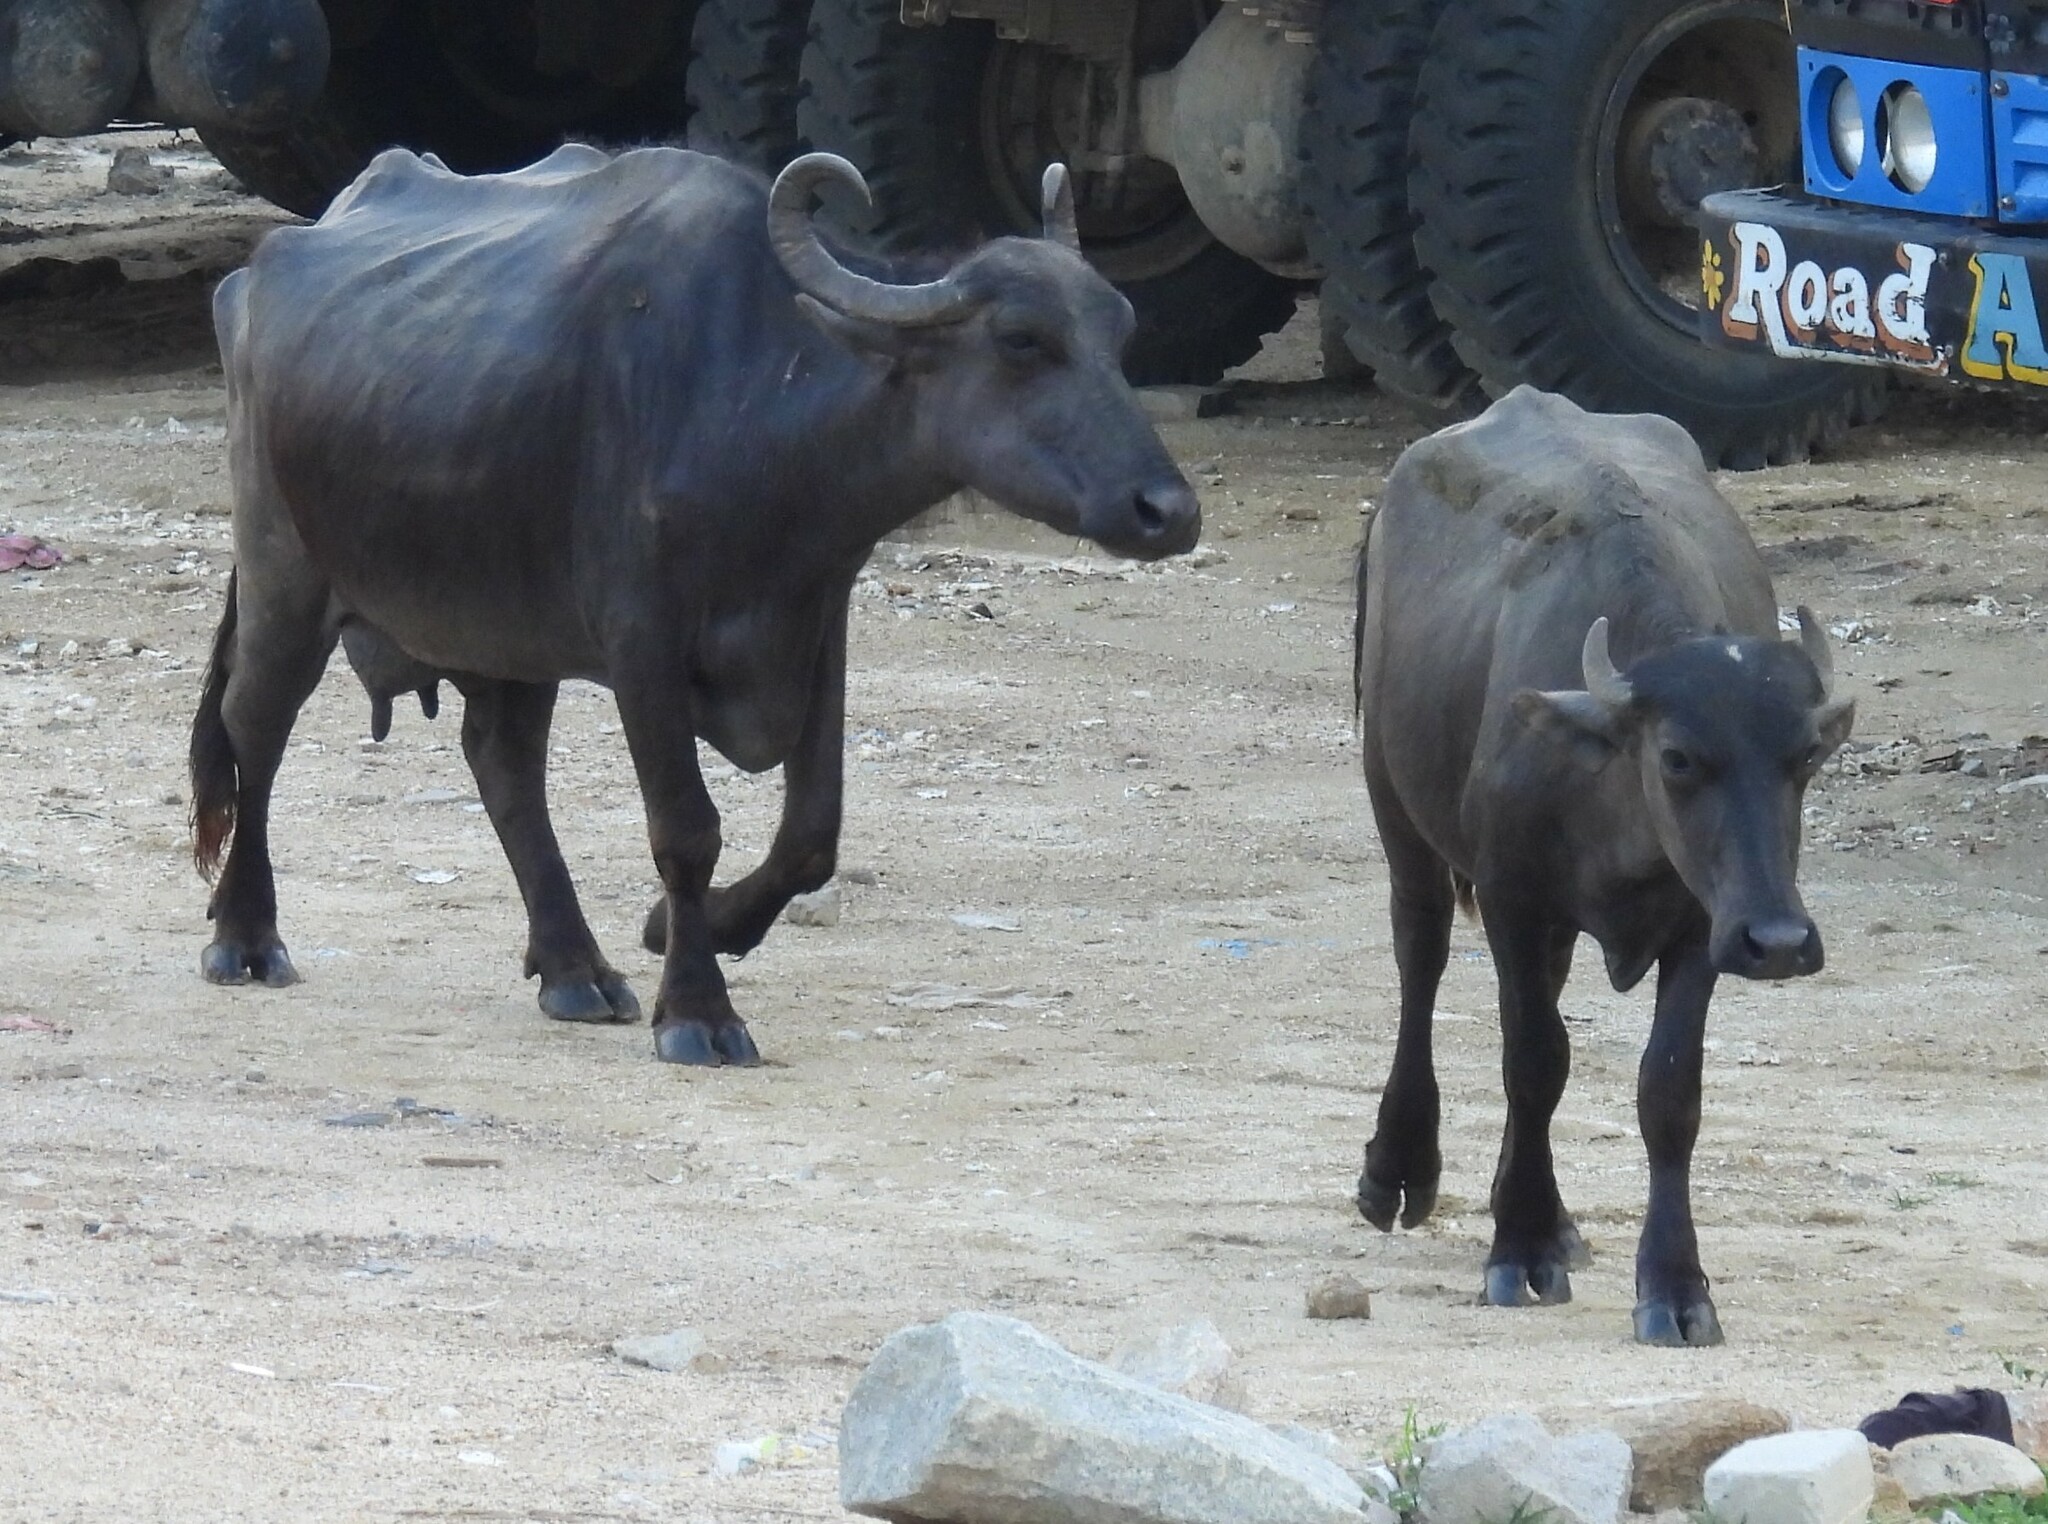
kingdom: Animalia
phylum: Chordata
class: Mammalia
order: Artiodactyla
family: Bovidae
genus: Bubalus
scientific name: Bubalus bubalis
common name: Water buffalo
